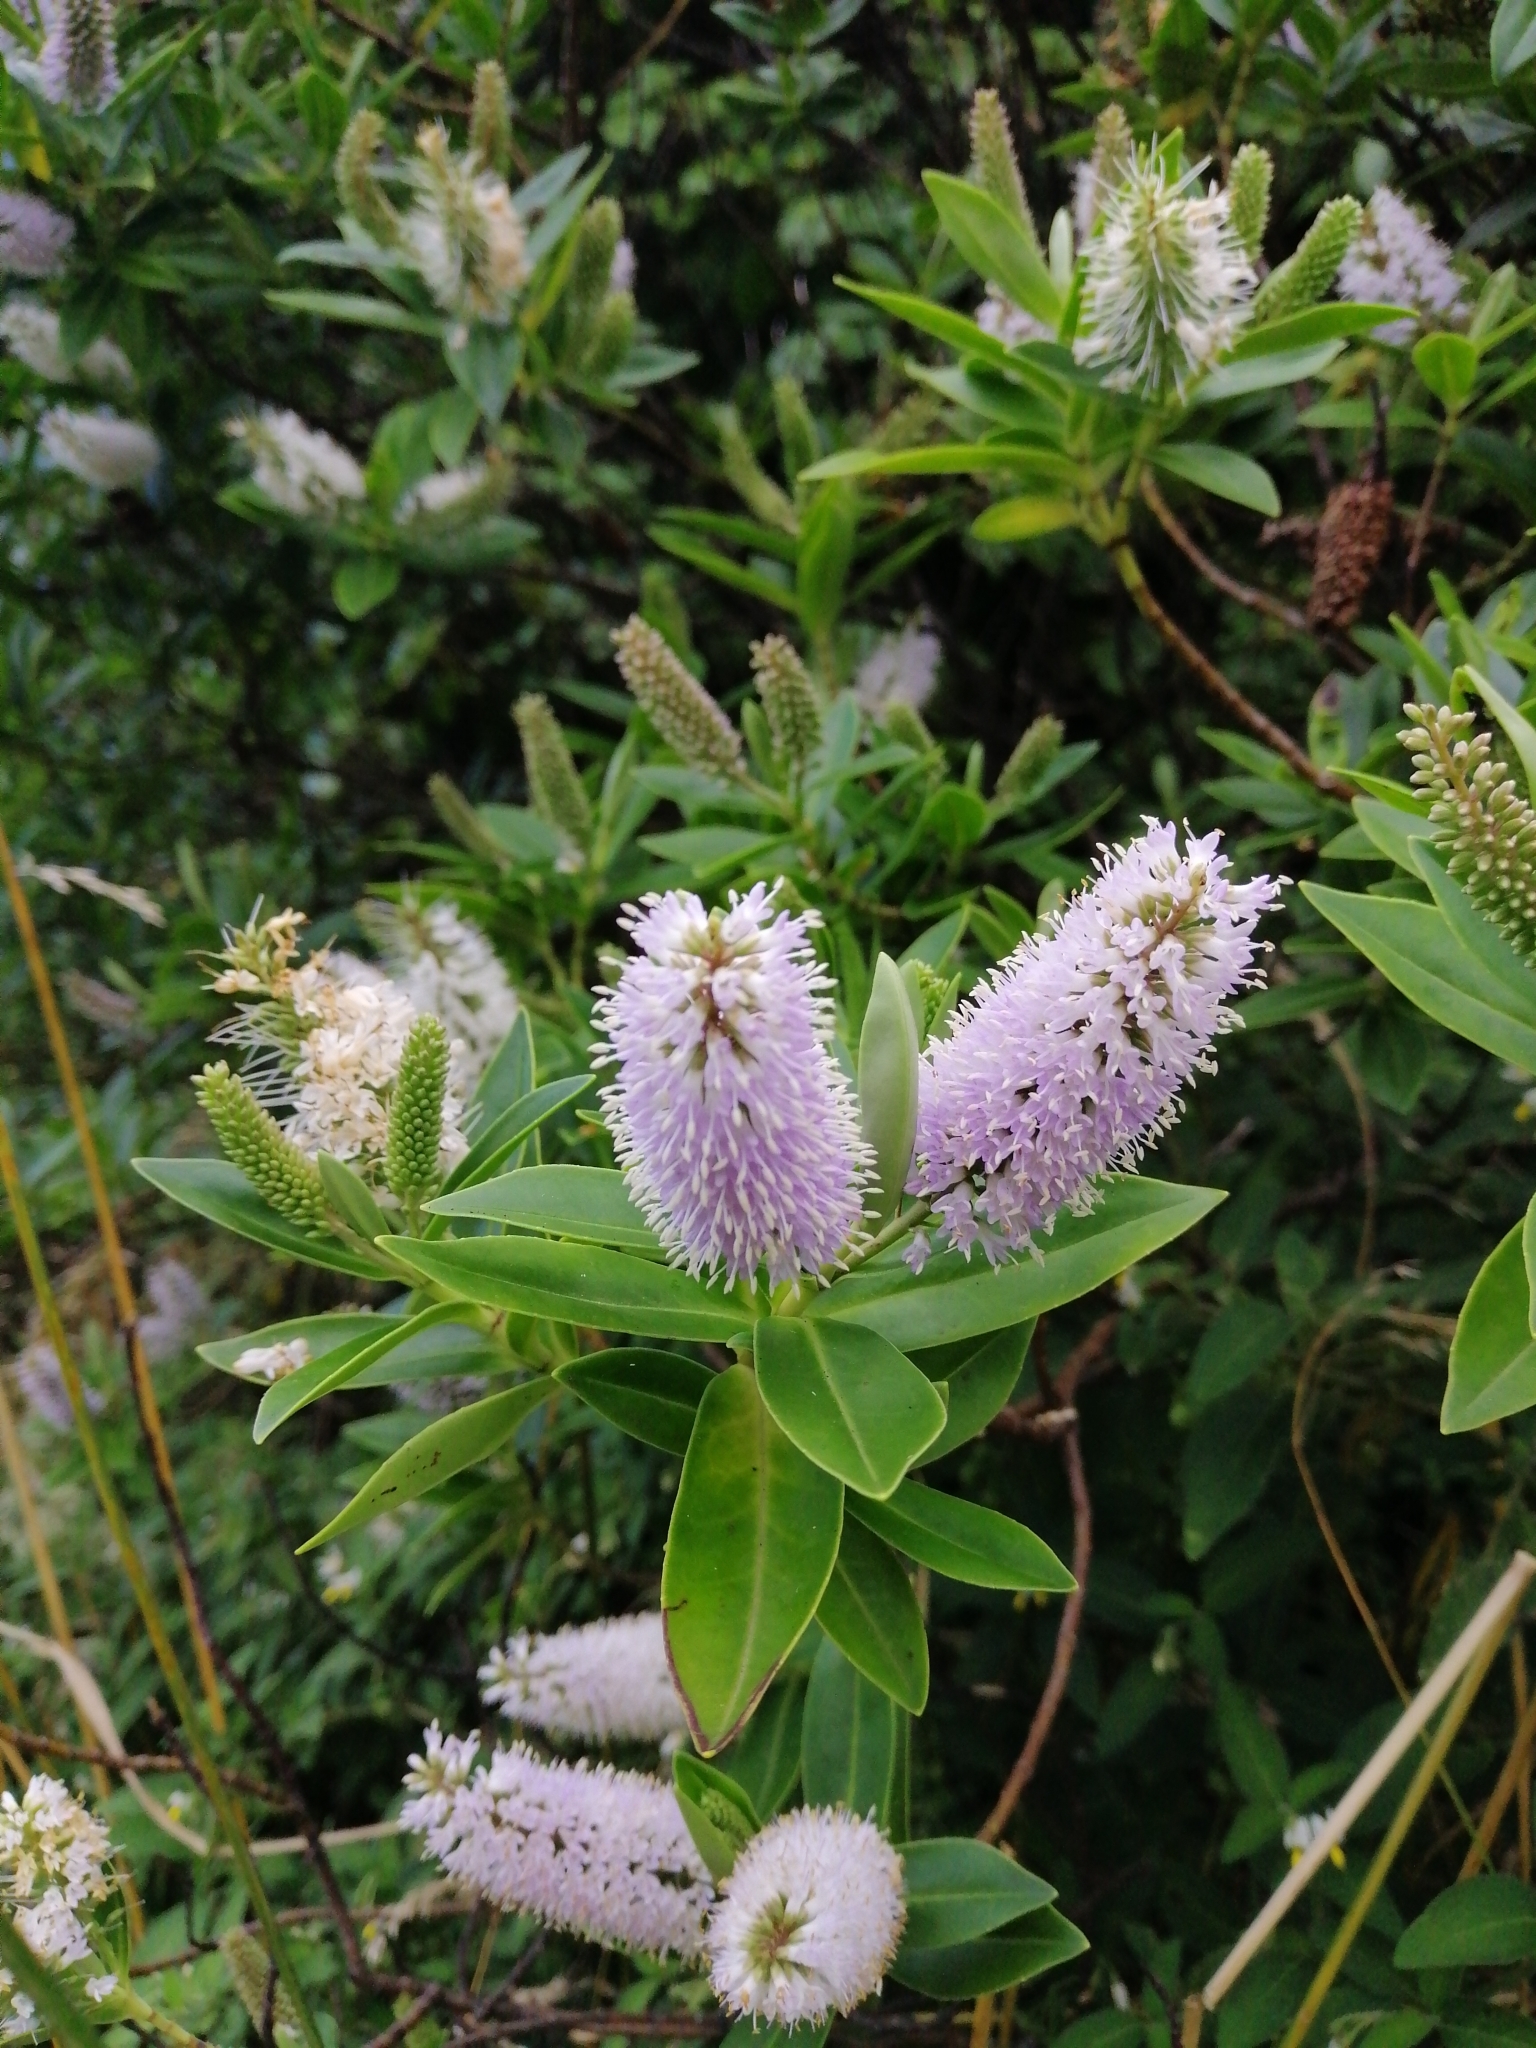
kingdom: Plantae
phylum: Tracheophyta
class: Magnoliopsida
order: Lamiales
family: Plantaginaceae
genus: Veronica
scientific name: Veronica stricta
